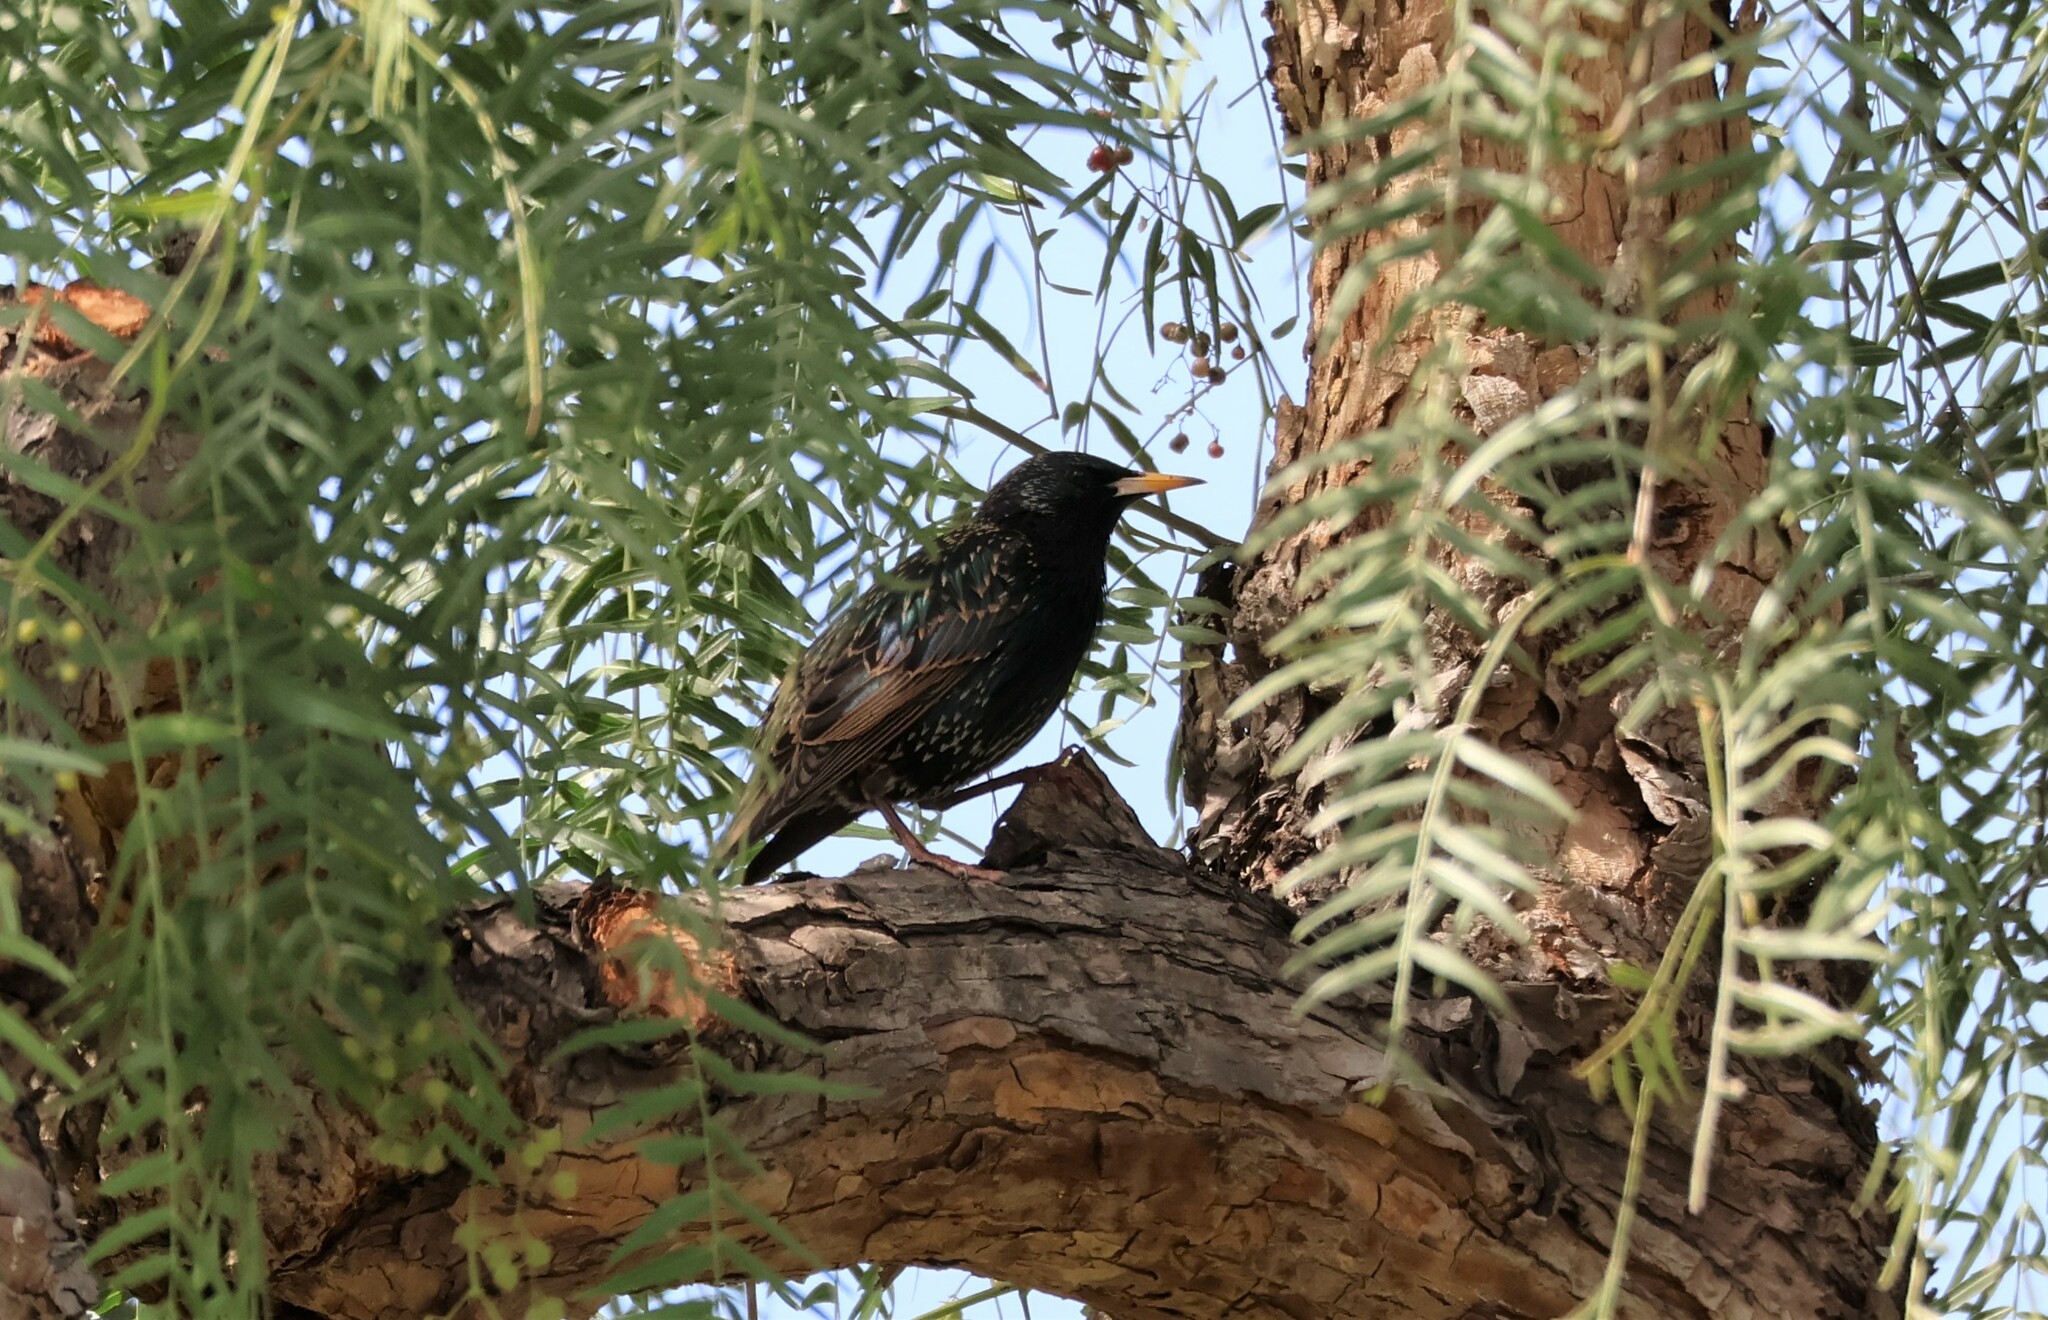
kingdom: Animalia
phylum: Chordata
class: Aves
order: Passeriformes
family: Sturnidae
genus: Sturnus
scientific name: Sturnus vulgaris
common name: Common starling
